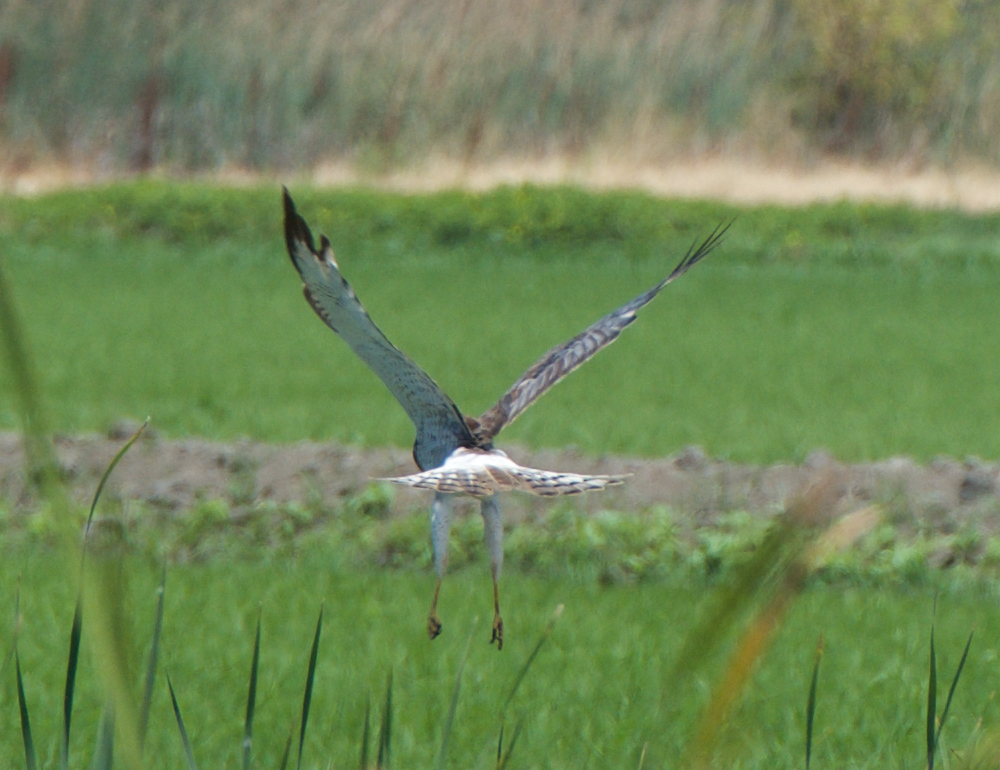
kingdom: Animalia
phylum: Chordata
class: Aves
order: Accipitriformes
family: Accipitridae
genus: Circus
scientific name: Circus cyaneus
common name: Hen harrier
